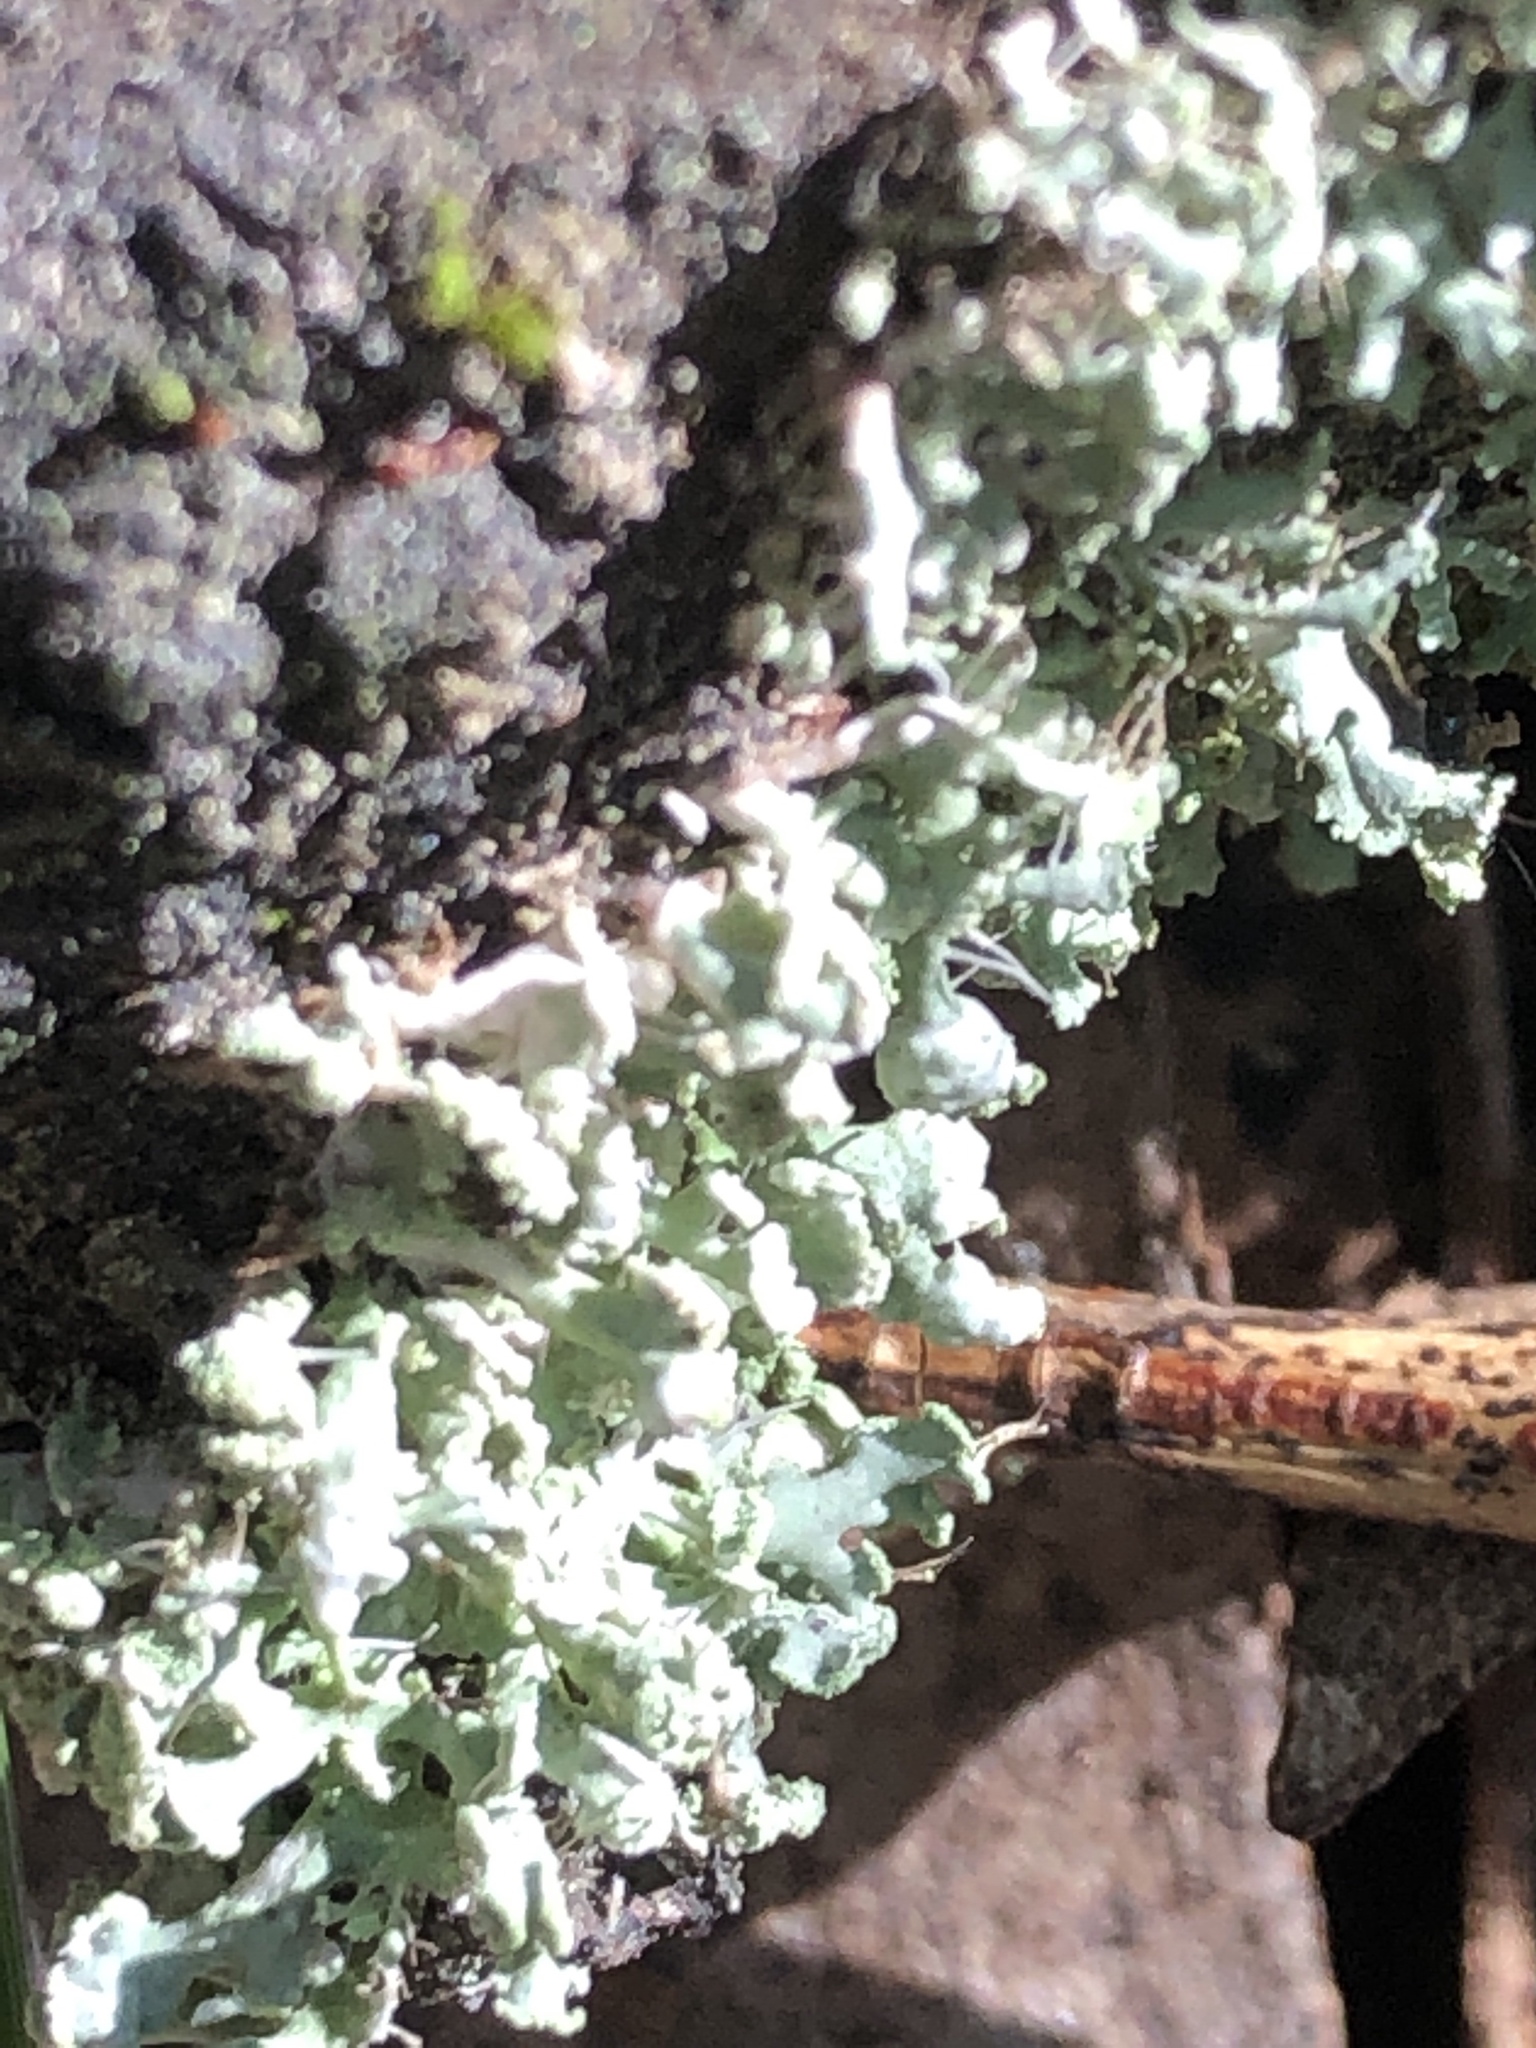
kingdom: Fungi
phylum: Ascomycota
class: Lecanoromycetes
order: Caliciales
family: Physciaceae
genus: Physcia
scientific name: Physcia tenella
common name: Fringed rosette lichen
